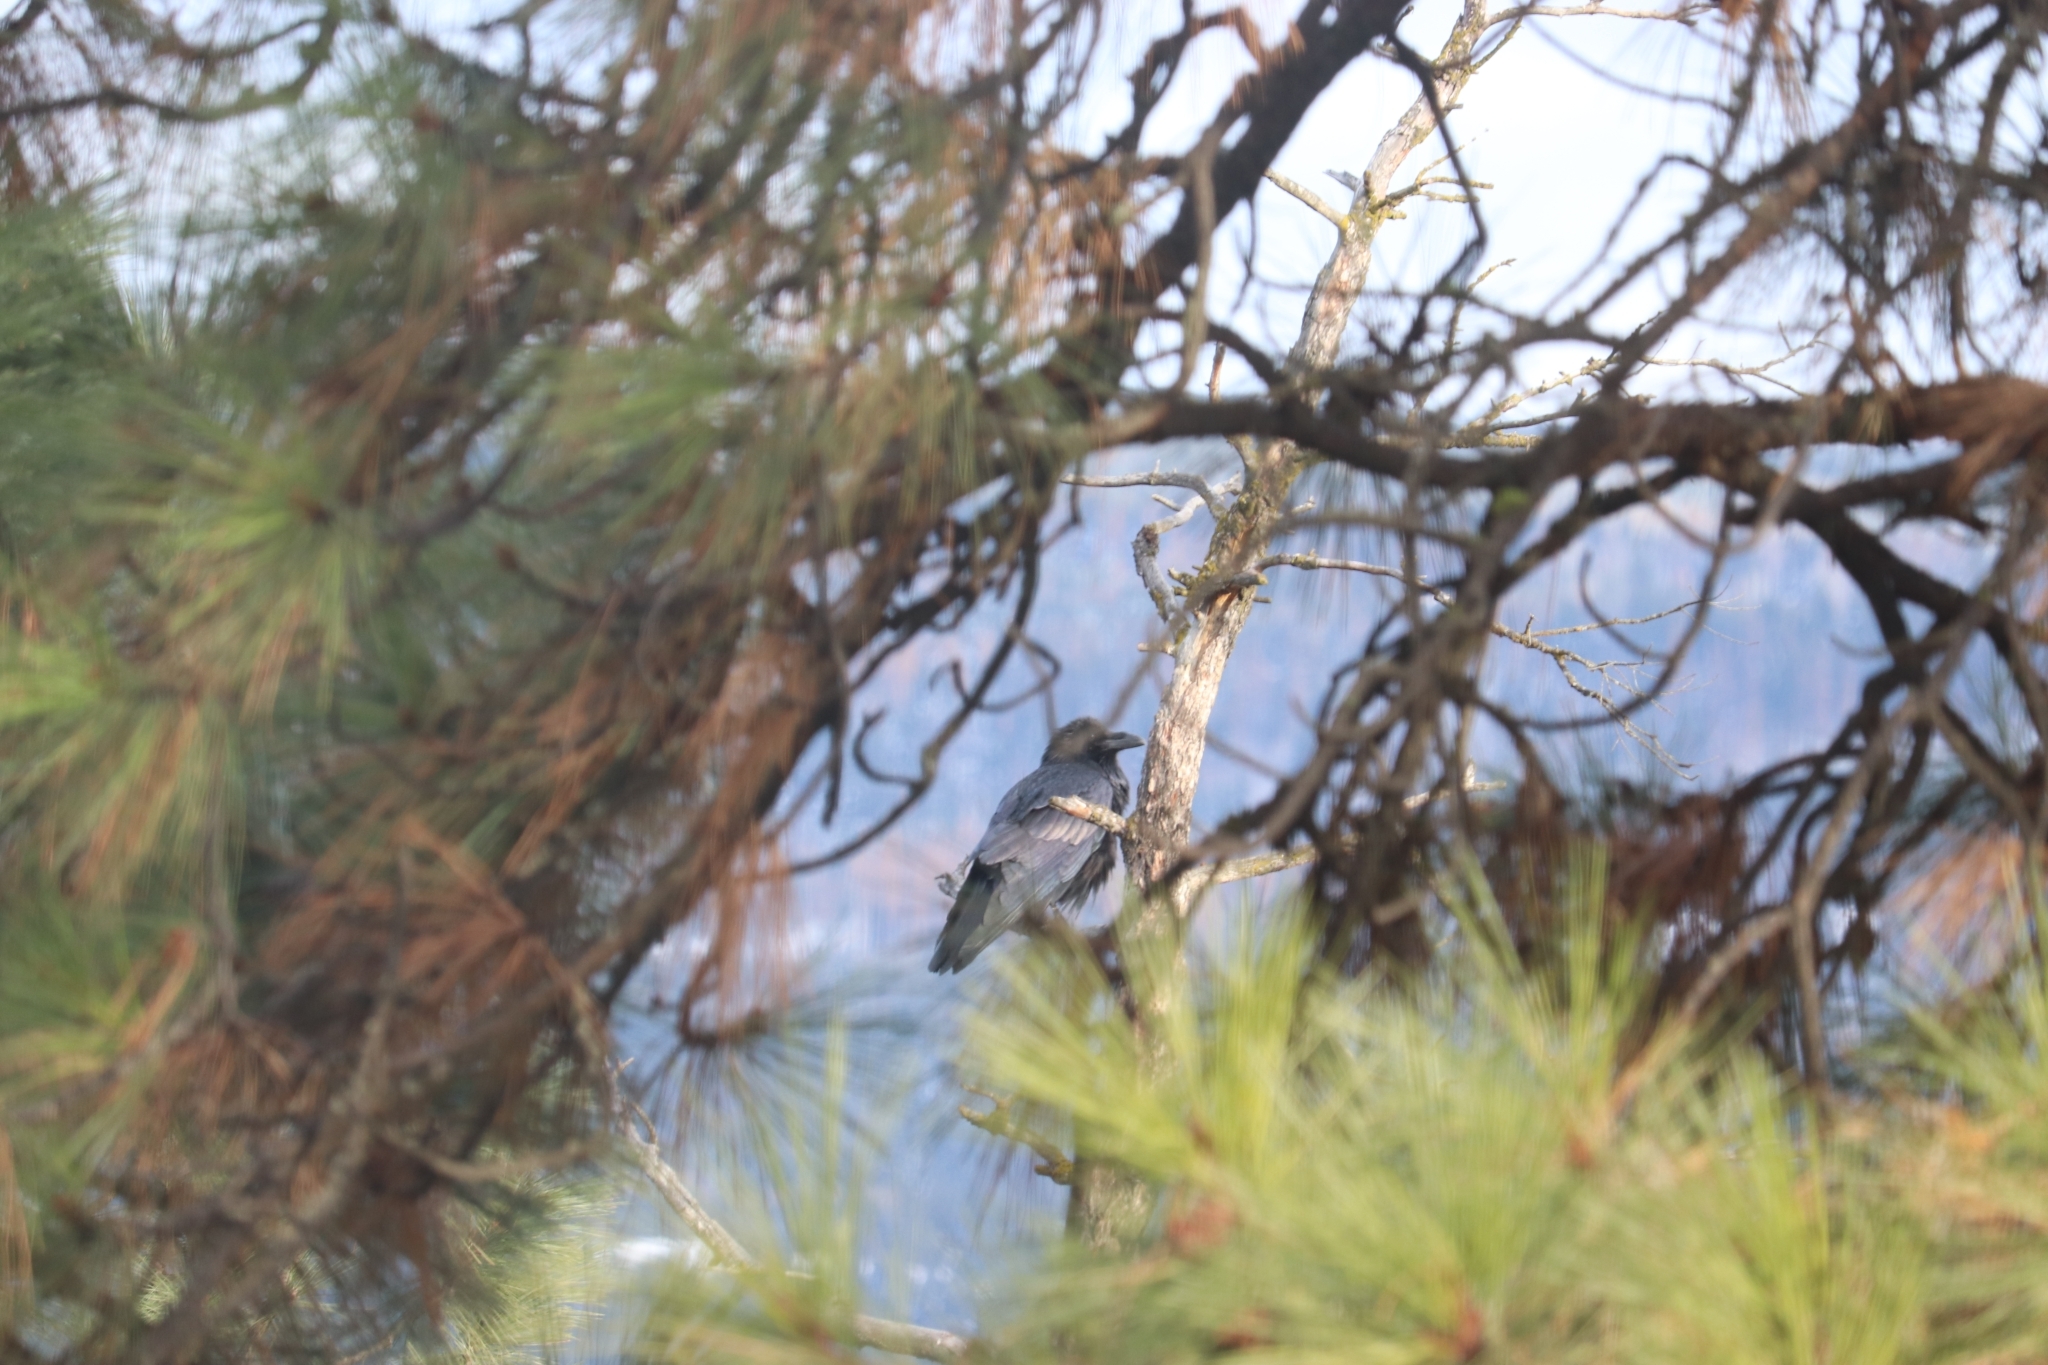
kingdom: Animalia
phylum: Chordata
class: Aves
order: Passeriformes
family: Corvidae
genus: Corvus
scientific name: Corvus corax
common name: Common raven
